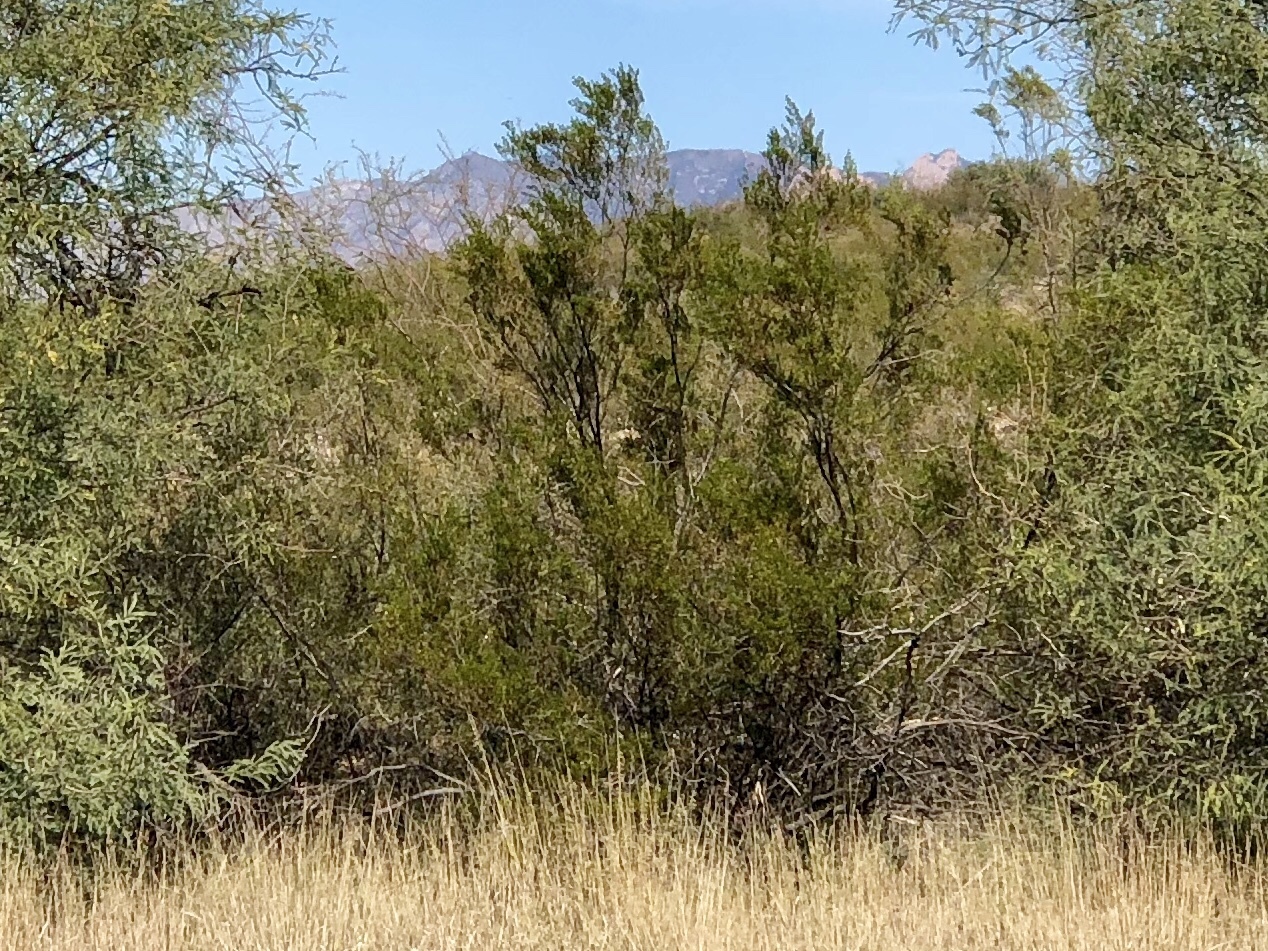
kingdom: Plantae
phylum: Tracheophyta
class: Magnoliopsida
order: Zygophyllales
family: Zygophyllaceae
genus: Larrea
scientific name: Larrea tridentata
